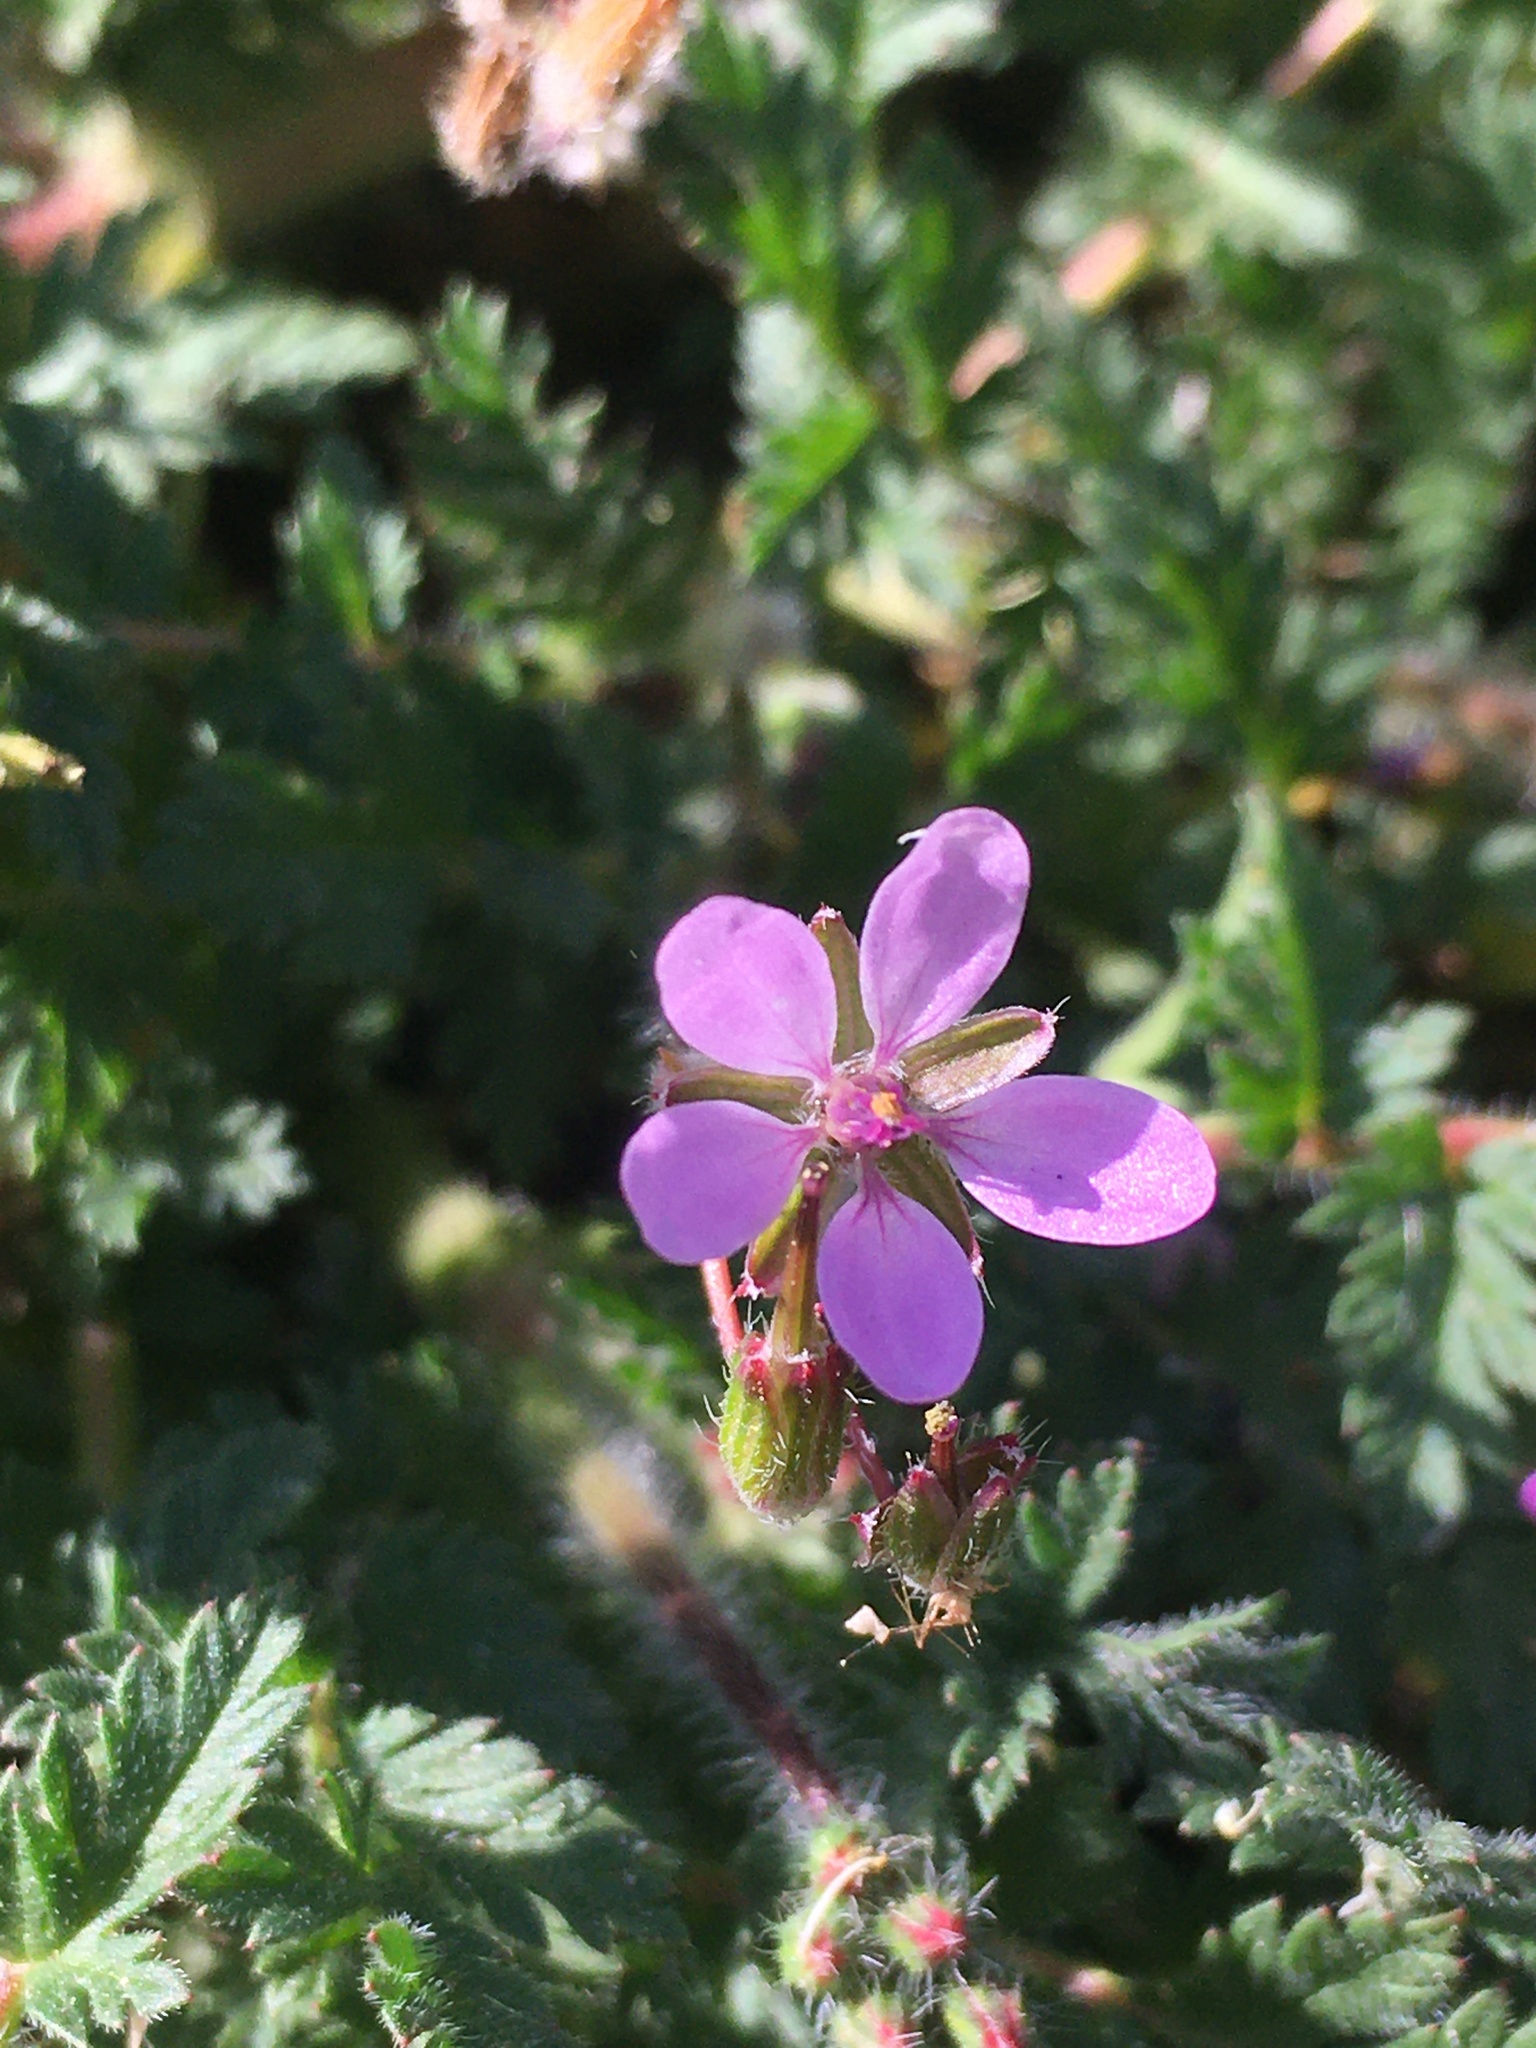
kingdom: Plantae
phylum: Tracheophyta
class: Magnoliopsida
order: Geraniales
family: Geraniaceae
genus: Erodium
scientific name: Erodium cicutarium
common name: Common stork's-bill
